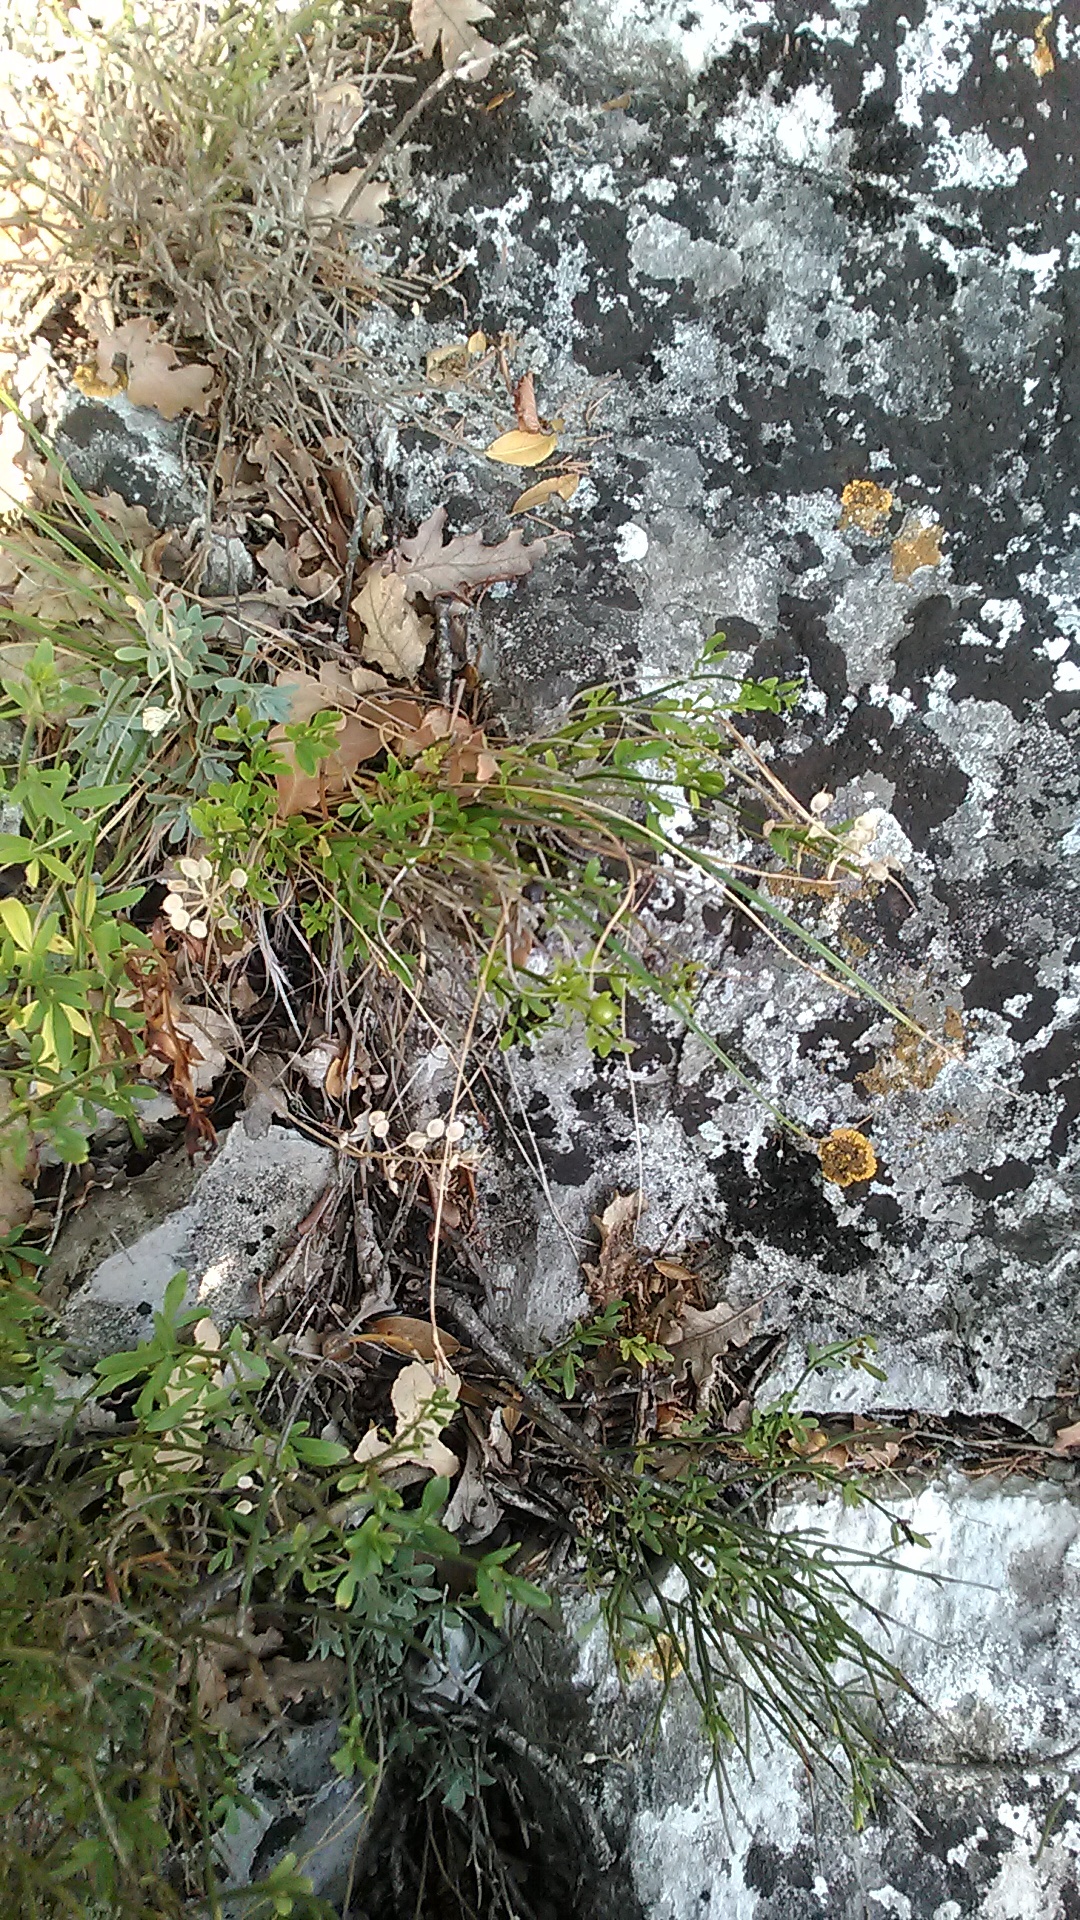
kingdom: Plantae
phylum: Tracheophyta
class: Magnoliopsida
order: Lamiales
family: Oleaceae
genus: Chrysojasminum
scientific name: Chrysojasminum fruticans
